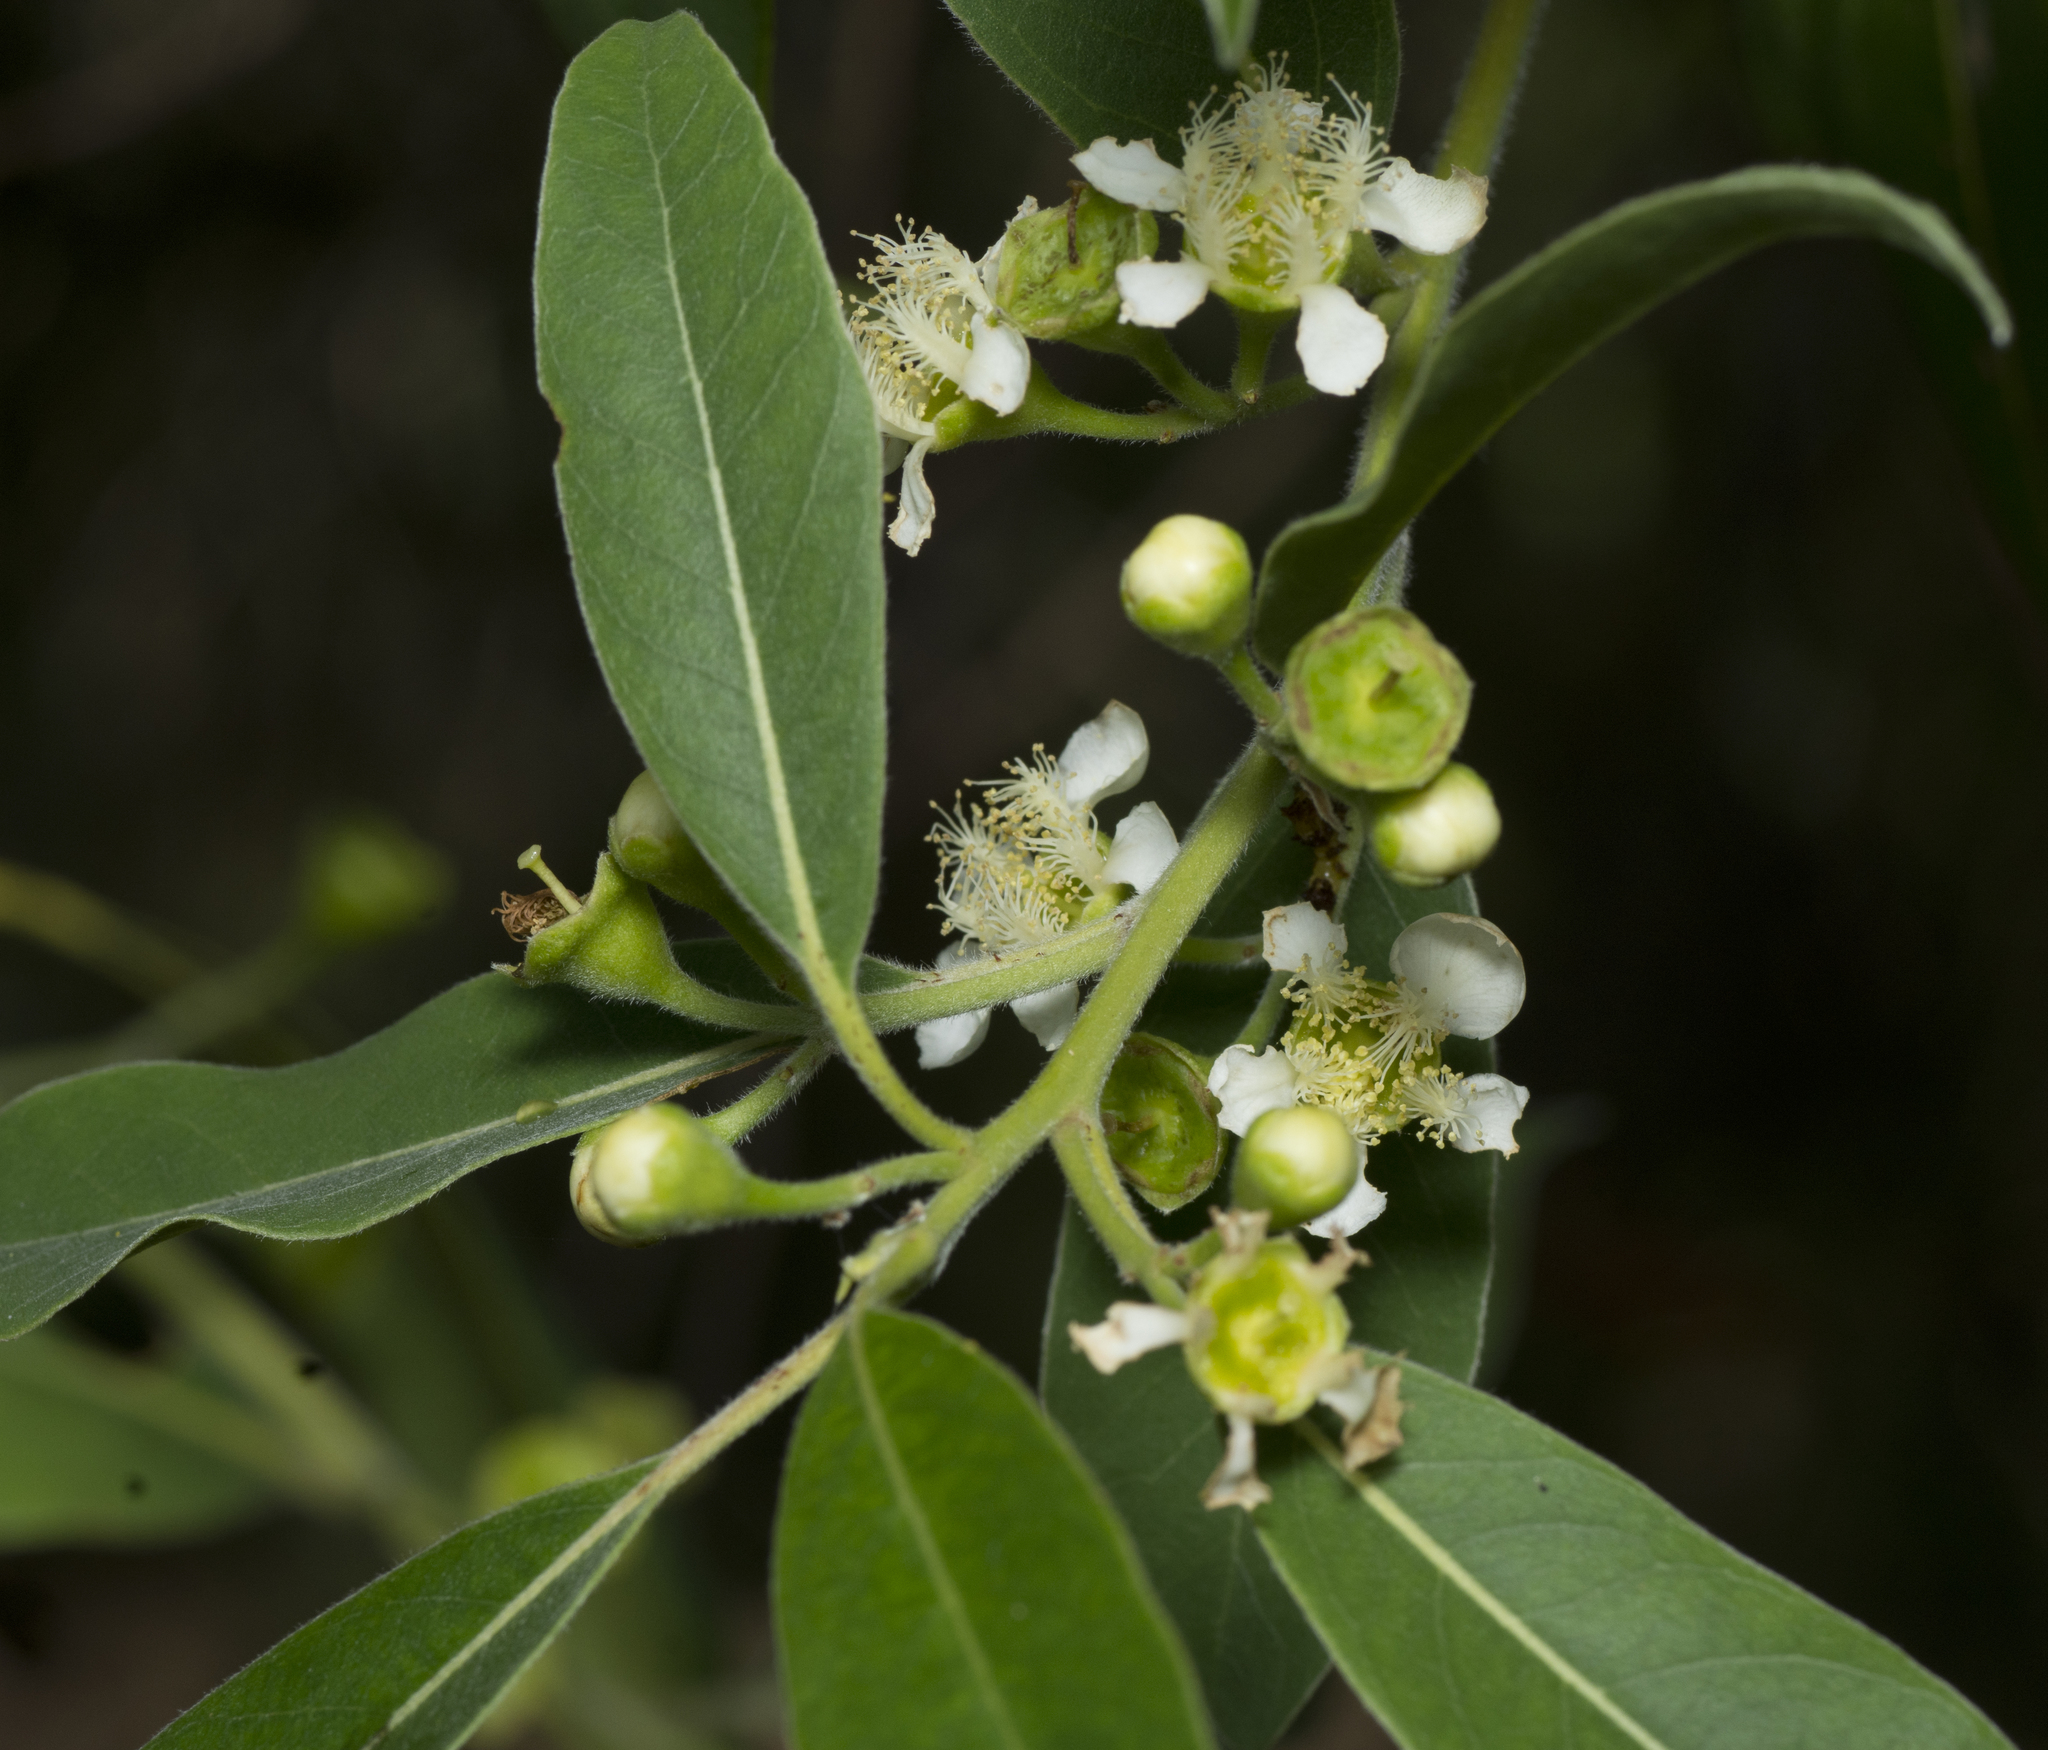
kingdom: Plantae
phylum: Tracheophyta
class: Magnoliopsida
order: Myrtales
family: Myrtaceae
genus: Lophostemon
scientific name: Lophostemon suaveolens
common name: Paperbark-mahogany
